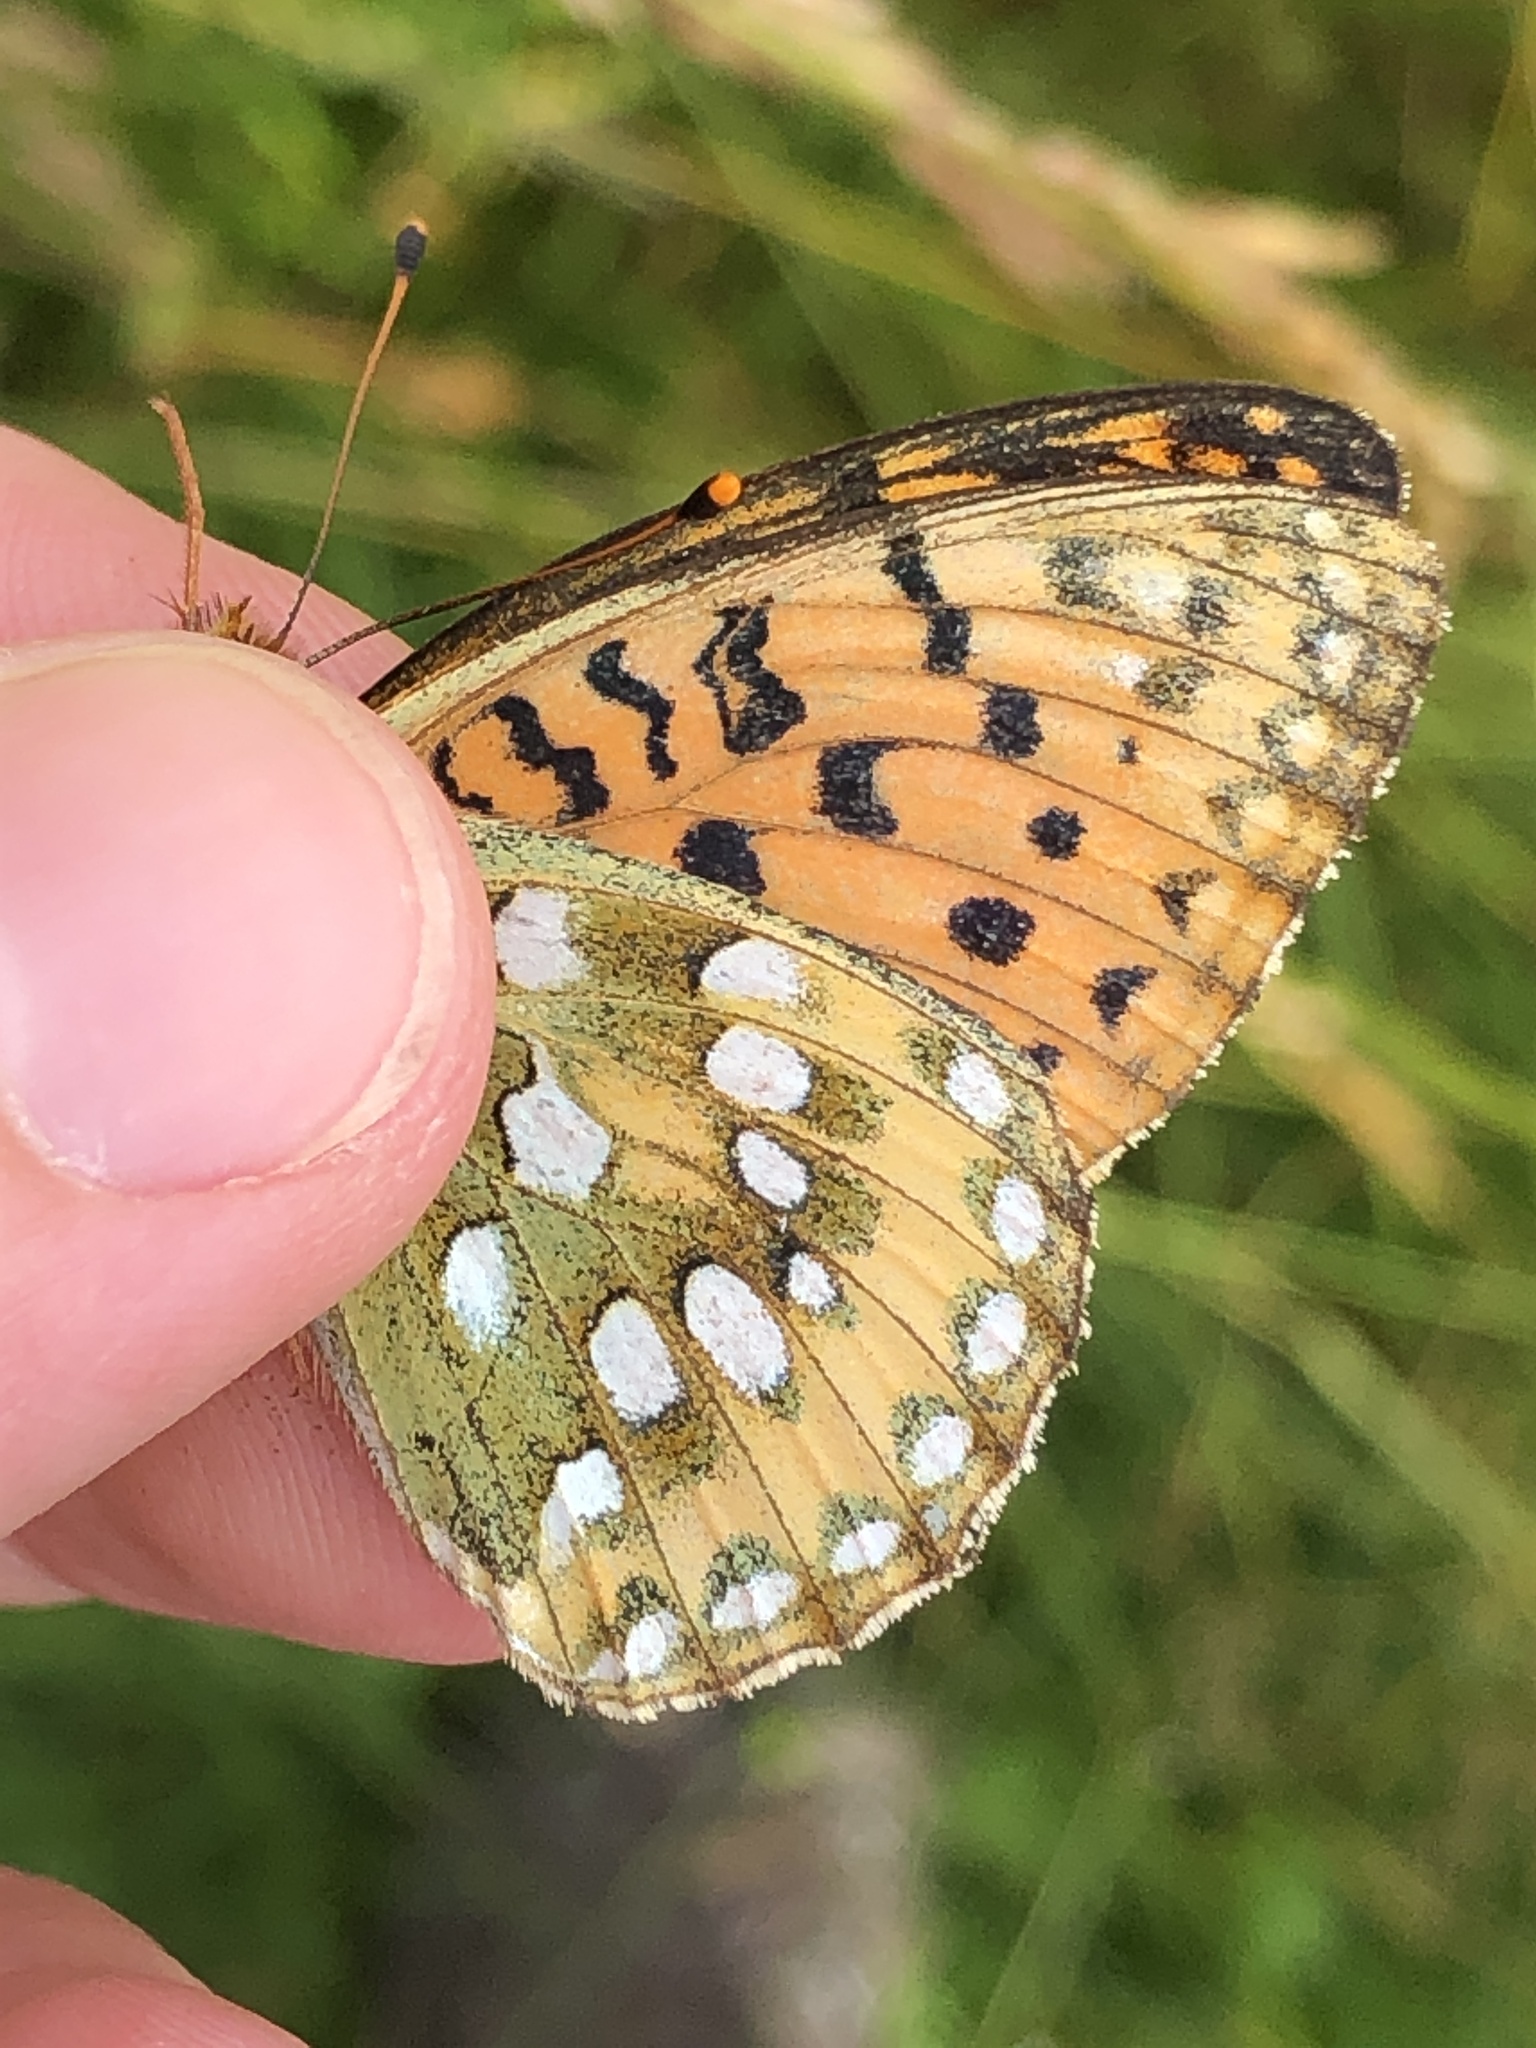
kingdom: Animalia
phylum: Arthropoda
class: Insecta
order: Lepidoptera
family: Nymphalidae
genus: Speyeria
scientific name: Speyeria aglaja
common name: Dark green fritillary
